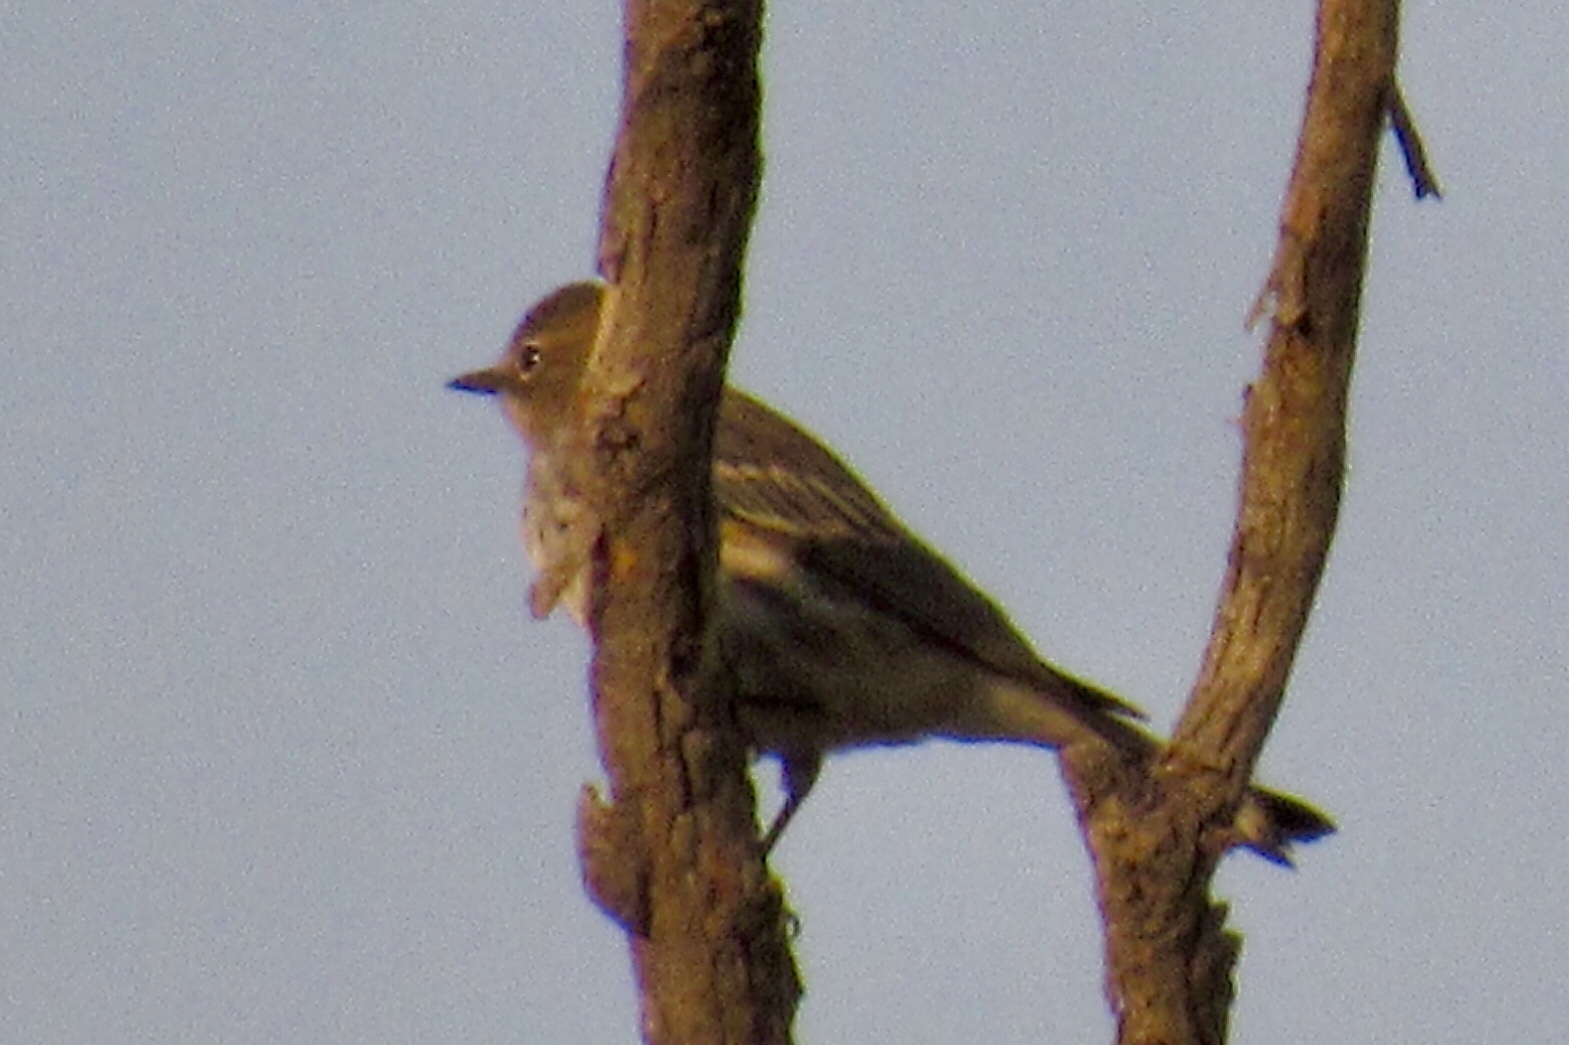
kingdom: Animalia
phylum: Chordata
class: Aves
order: Passeriformes
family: Parulidae
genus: Setophaga
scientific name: Setophaga coronata
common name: Myrtle warbler
